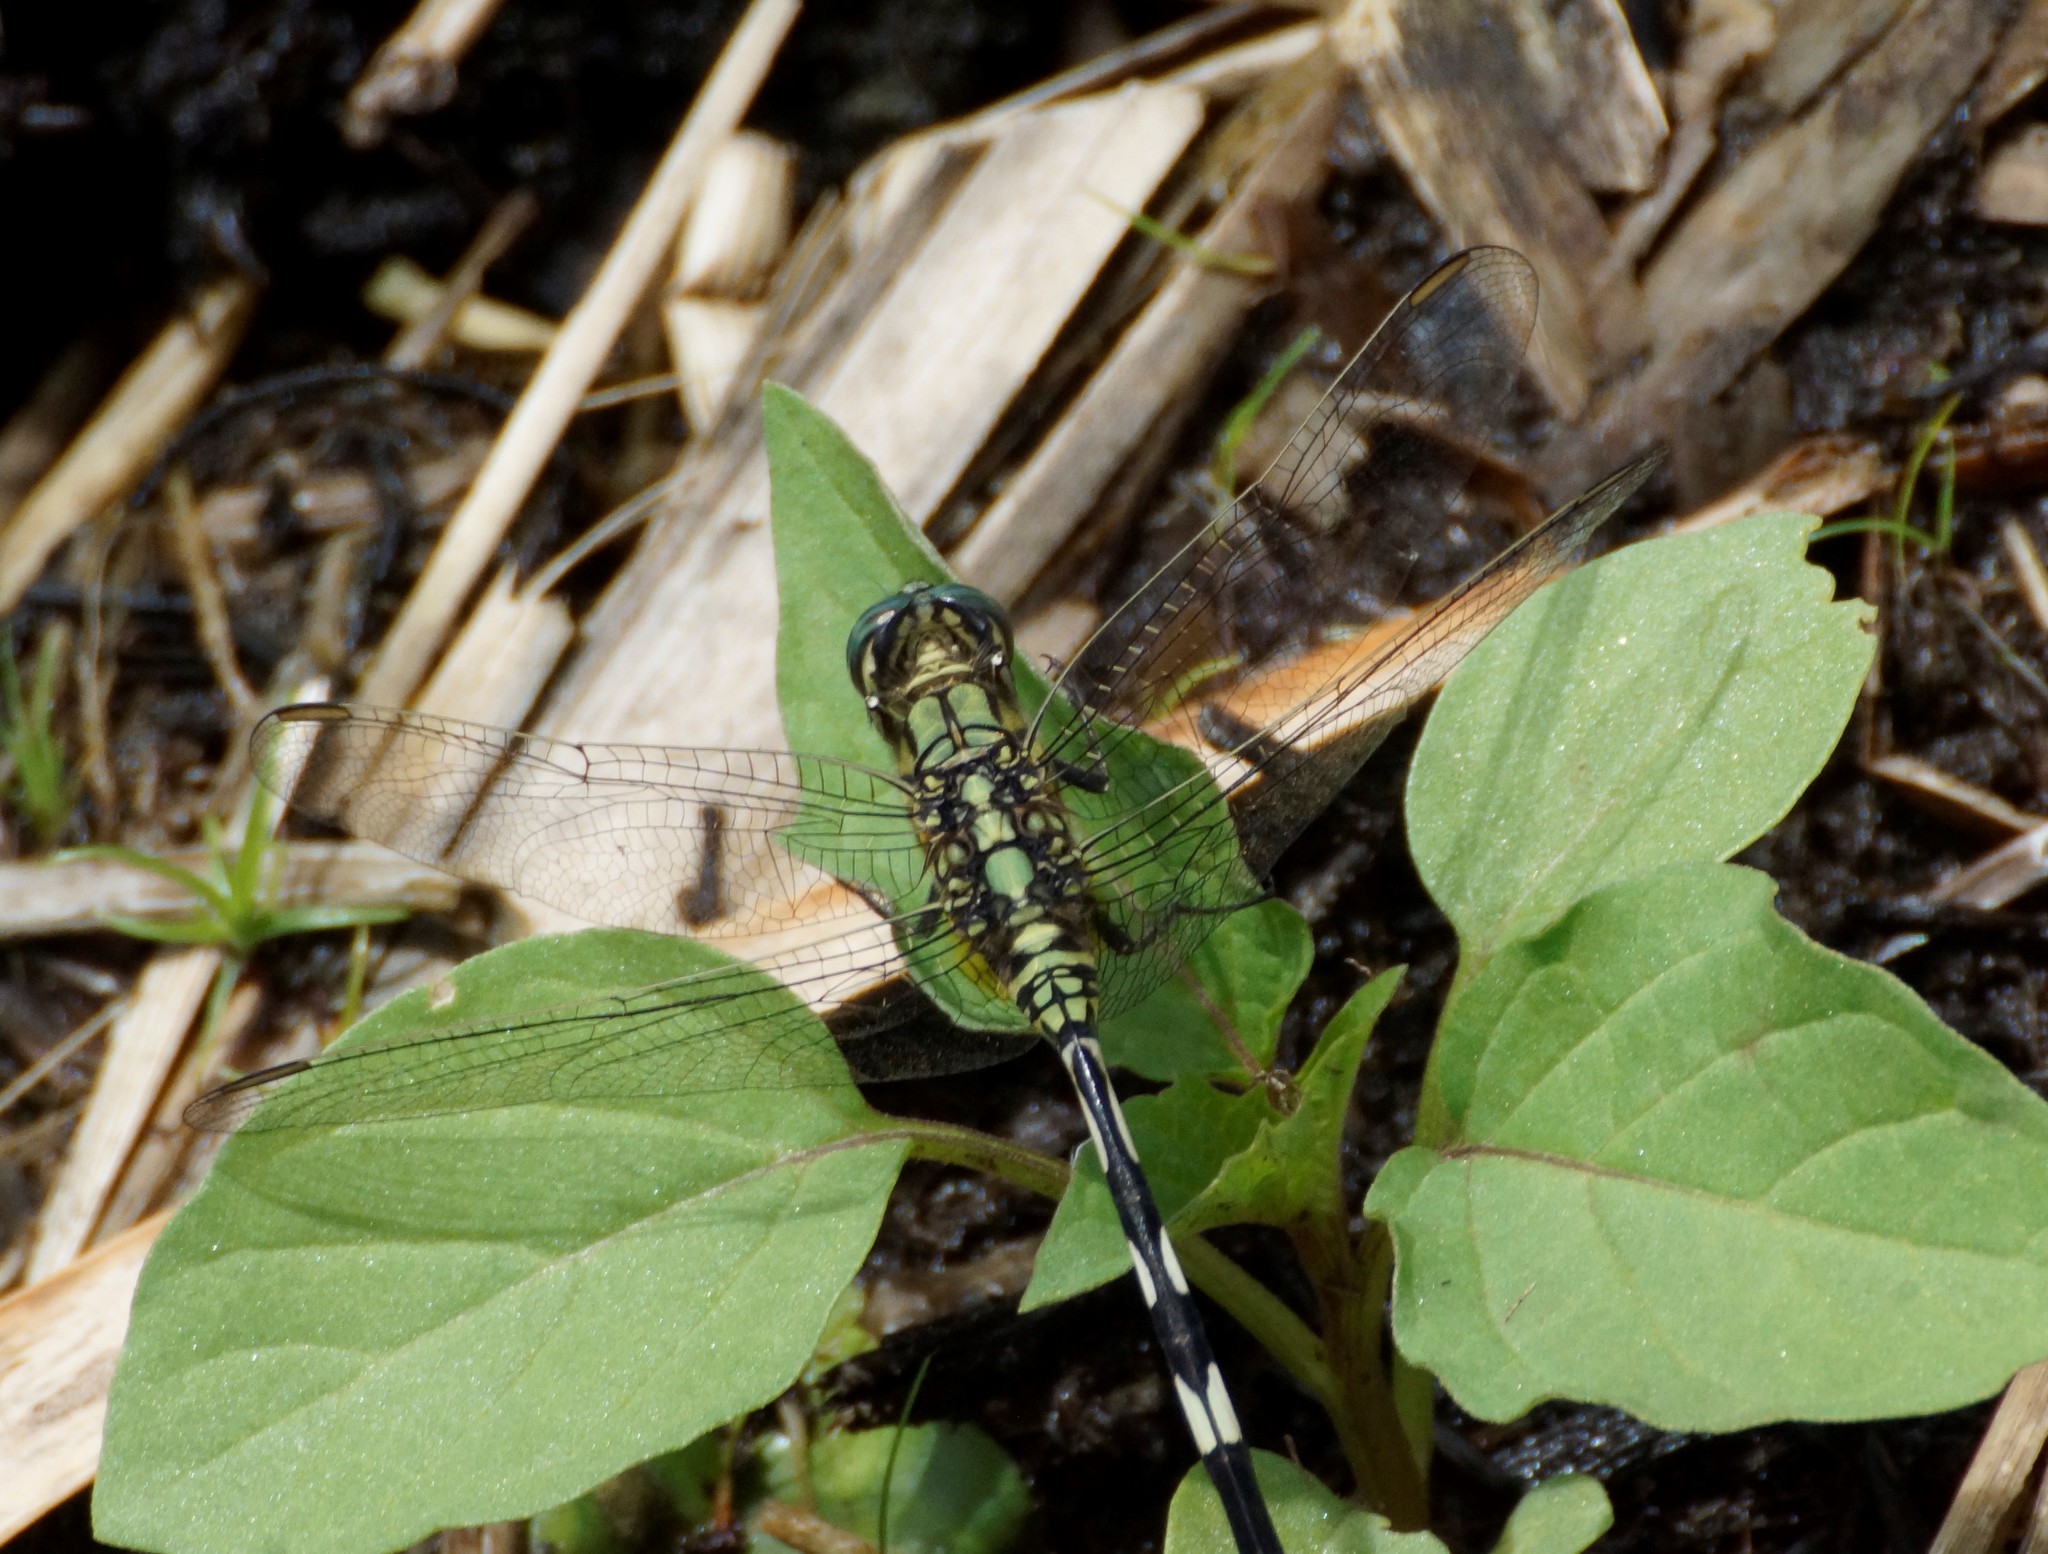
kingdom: Animalia
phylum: Arthropoda
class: Insecta
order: Odonata
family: Libellulidae
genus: Orthetrum
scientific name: Orthetrum sabina
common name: Slender skimmer
